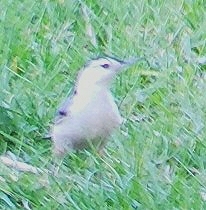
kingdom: Animalia
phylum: Chordata
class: Aves
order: Passeriformes
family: Sittidae
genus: Sitta
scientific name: Sitta carolinensis
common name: White-breasted nuthatch
